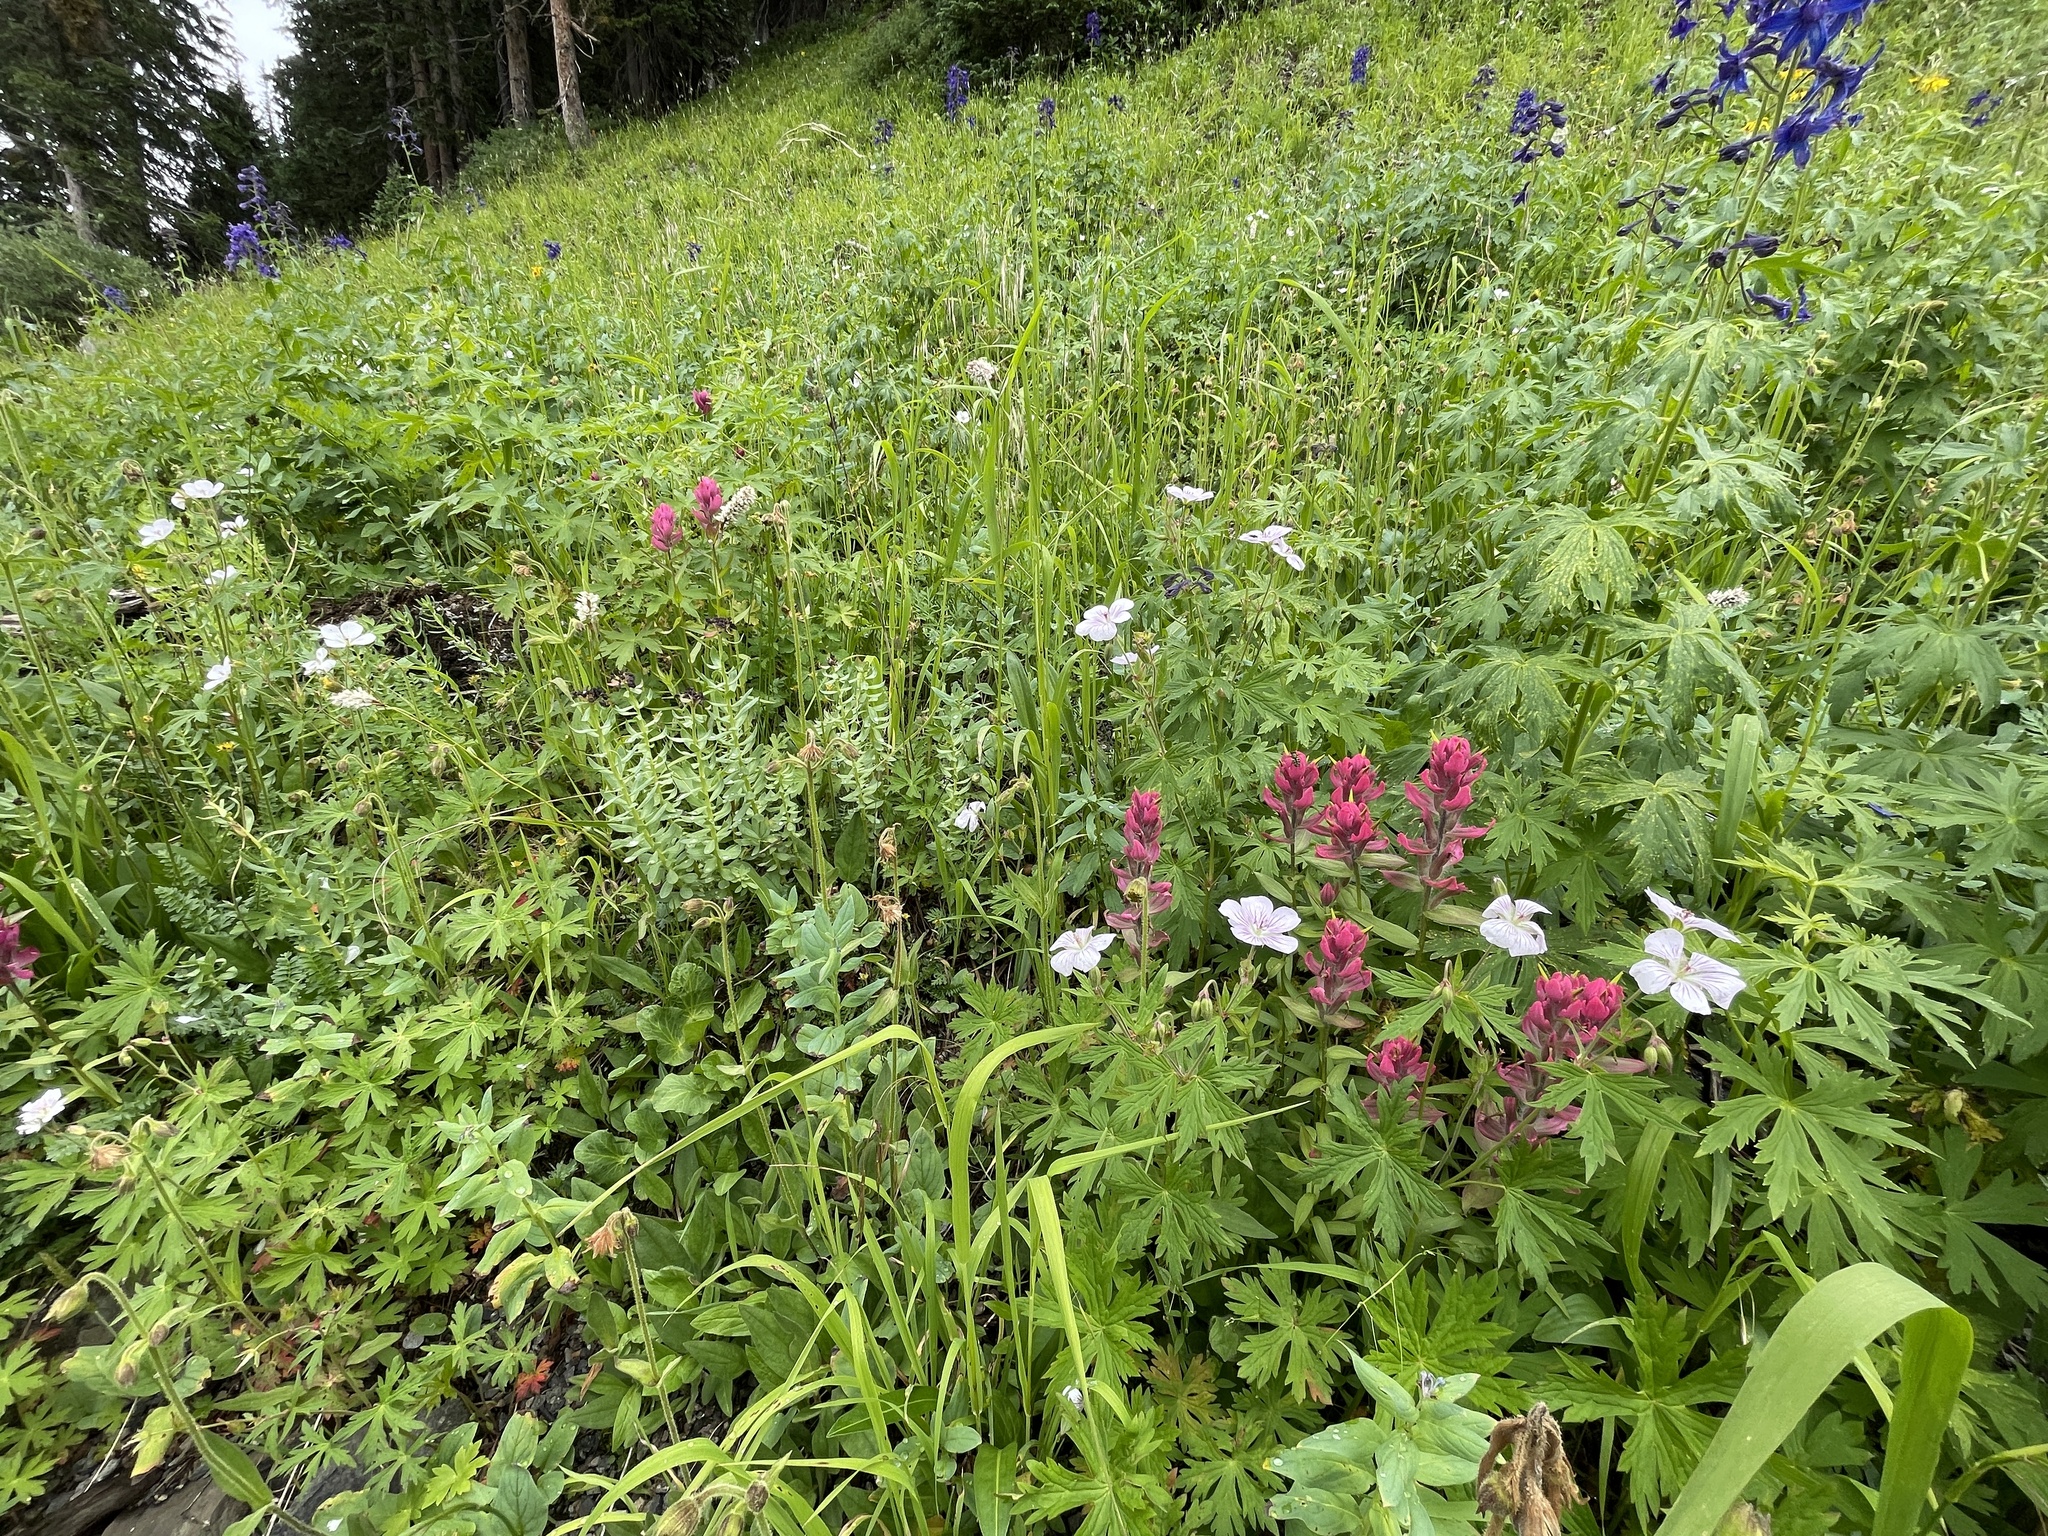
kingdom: Plantae
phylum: Tracheophyta
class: Magnoliopsida
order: Lamiales
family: Orobanchaceae
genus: Castilleja
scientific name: Castilleja rhexifolia
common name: Rocky mountain paintbrush
